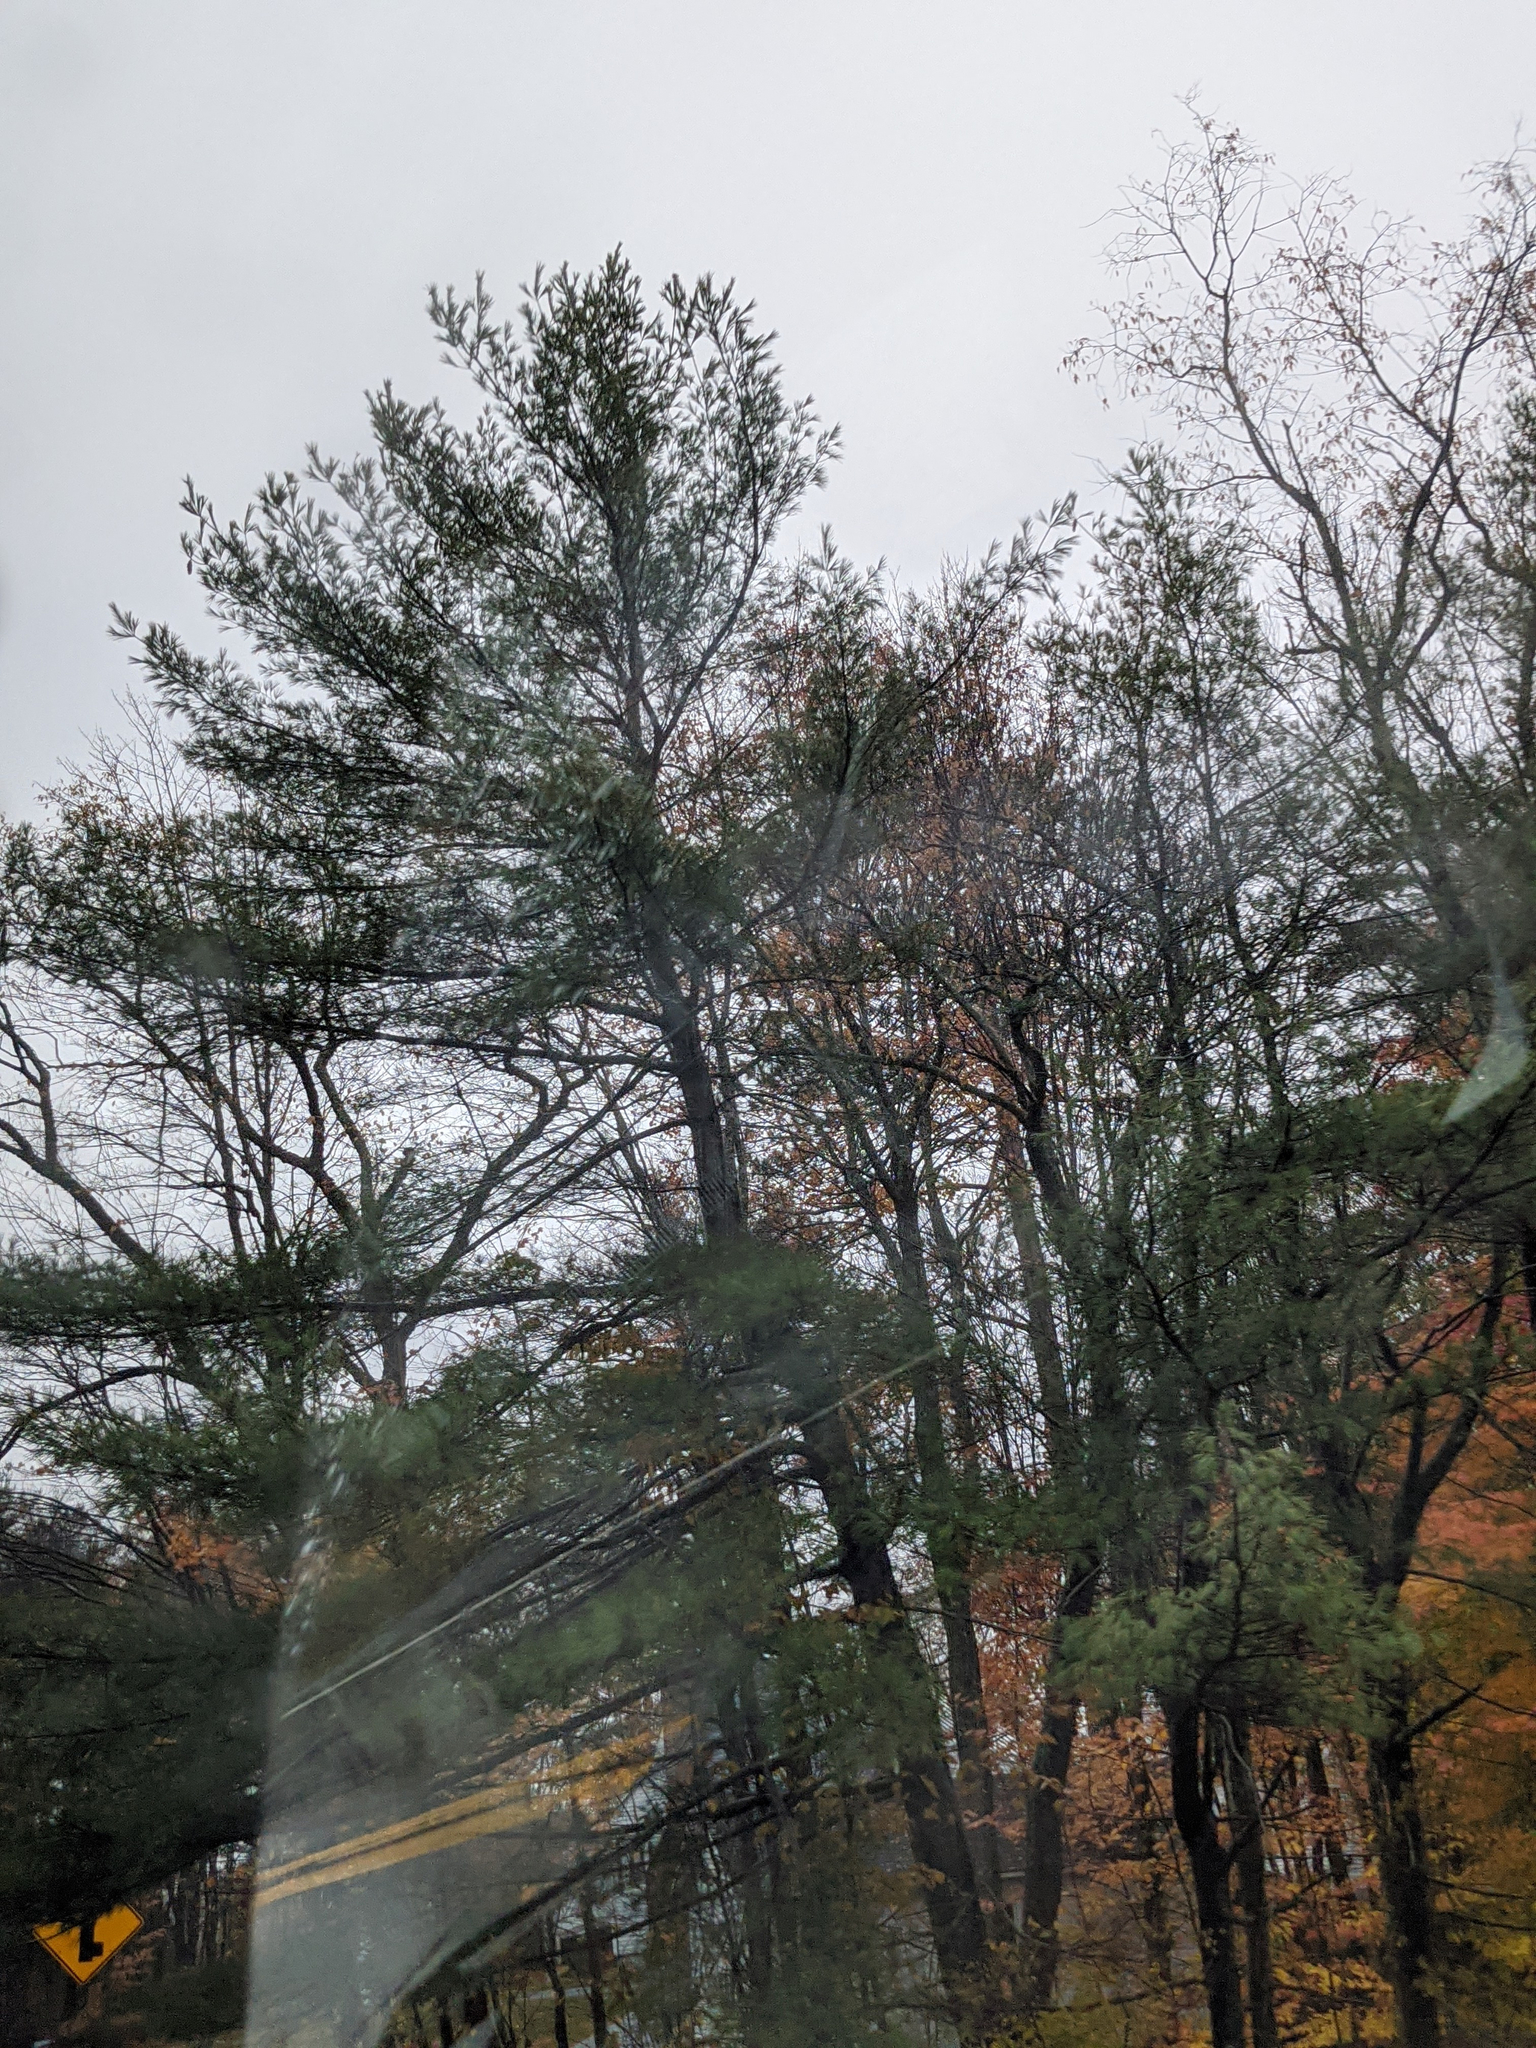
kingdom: Plantae
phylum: Tracheophyta
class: Pinopsida
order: Pinales
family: Pinaceae
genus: Pinus
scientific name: Pinus strobus
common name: Weymouth pine
